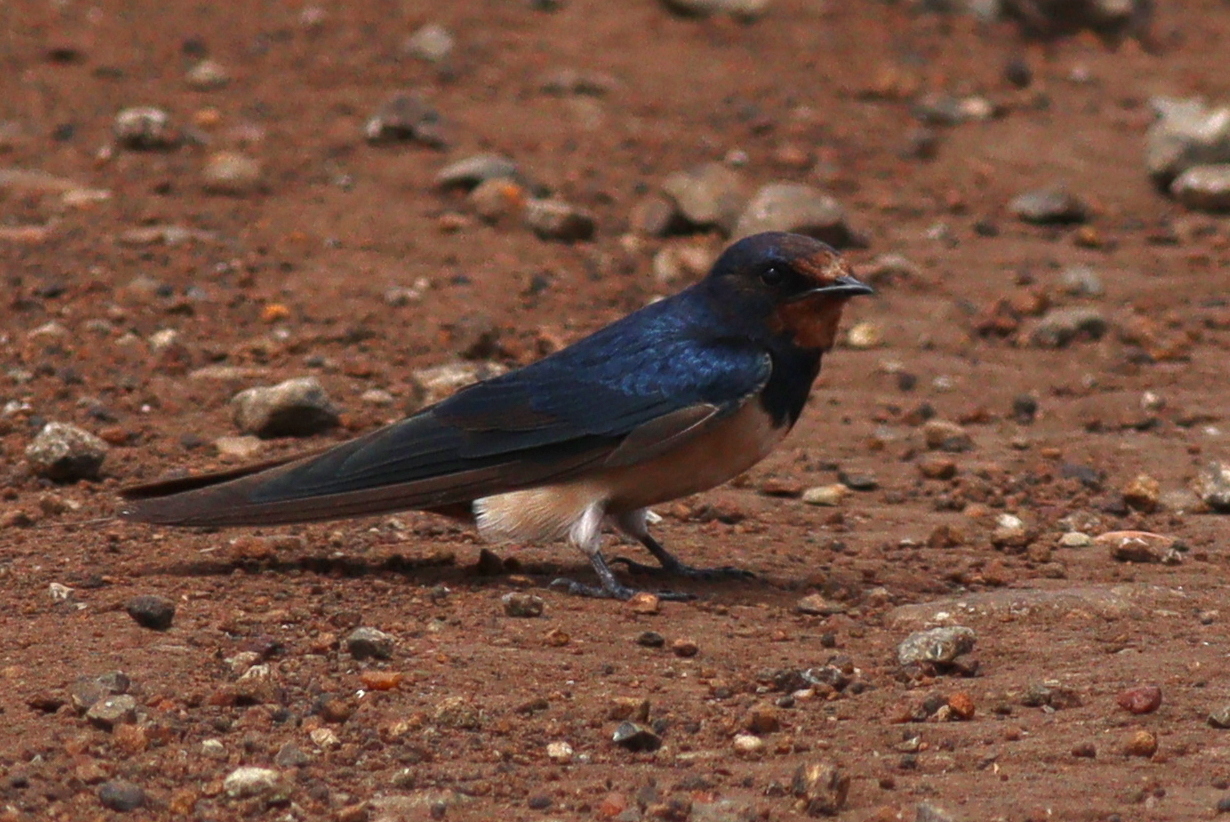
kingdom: Animalia
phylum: Chordata
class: Aves
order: Passeriformes
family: Hirundinidae
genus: Hirundo
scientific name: Hirundo rustica
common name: Barn swallow
